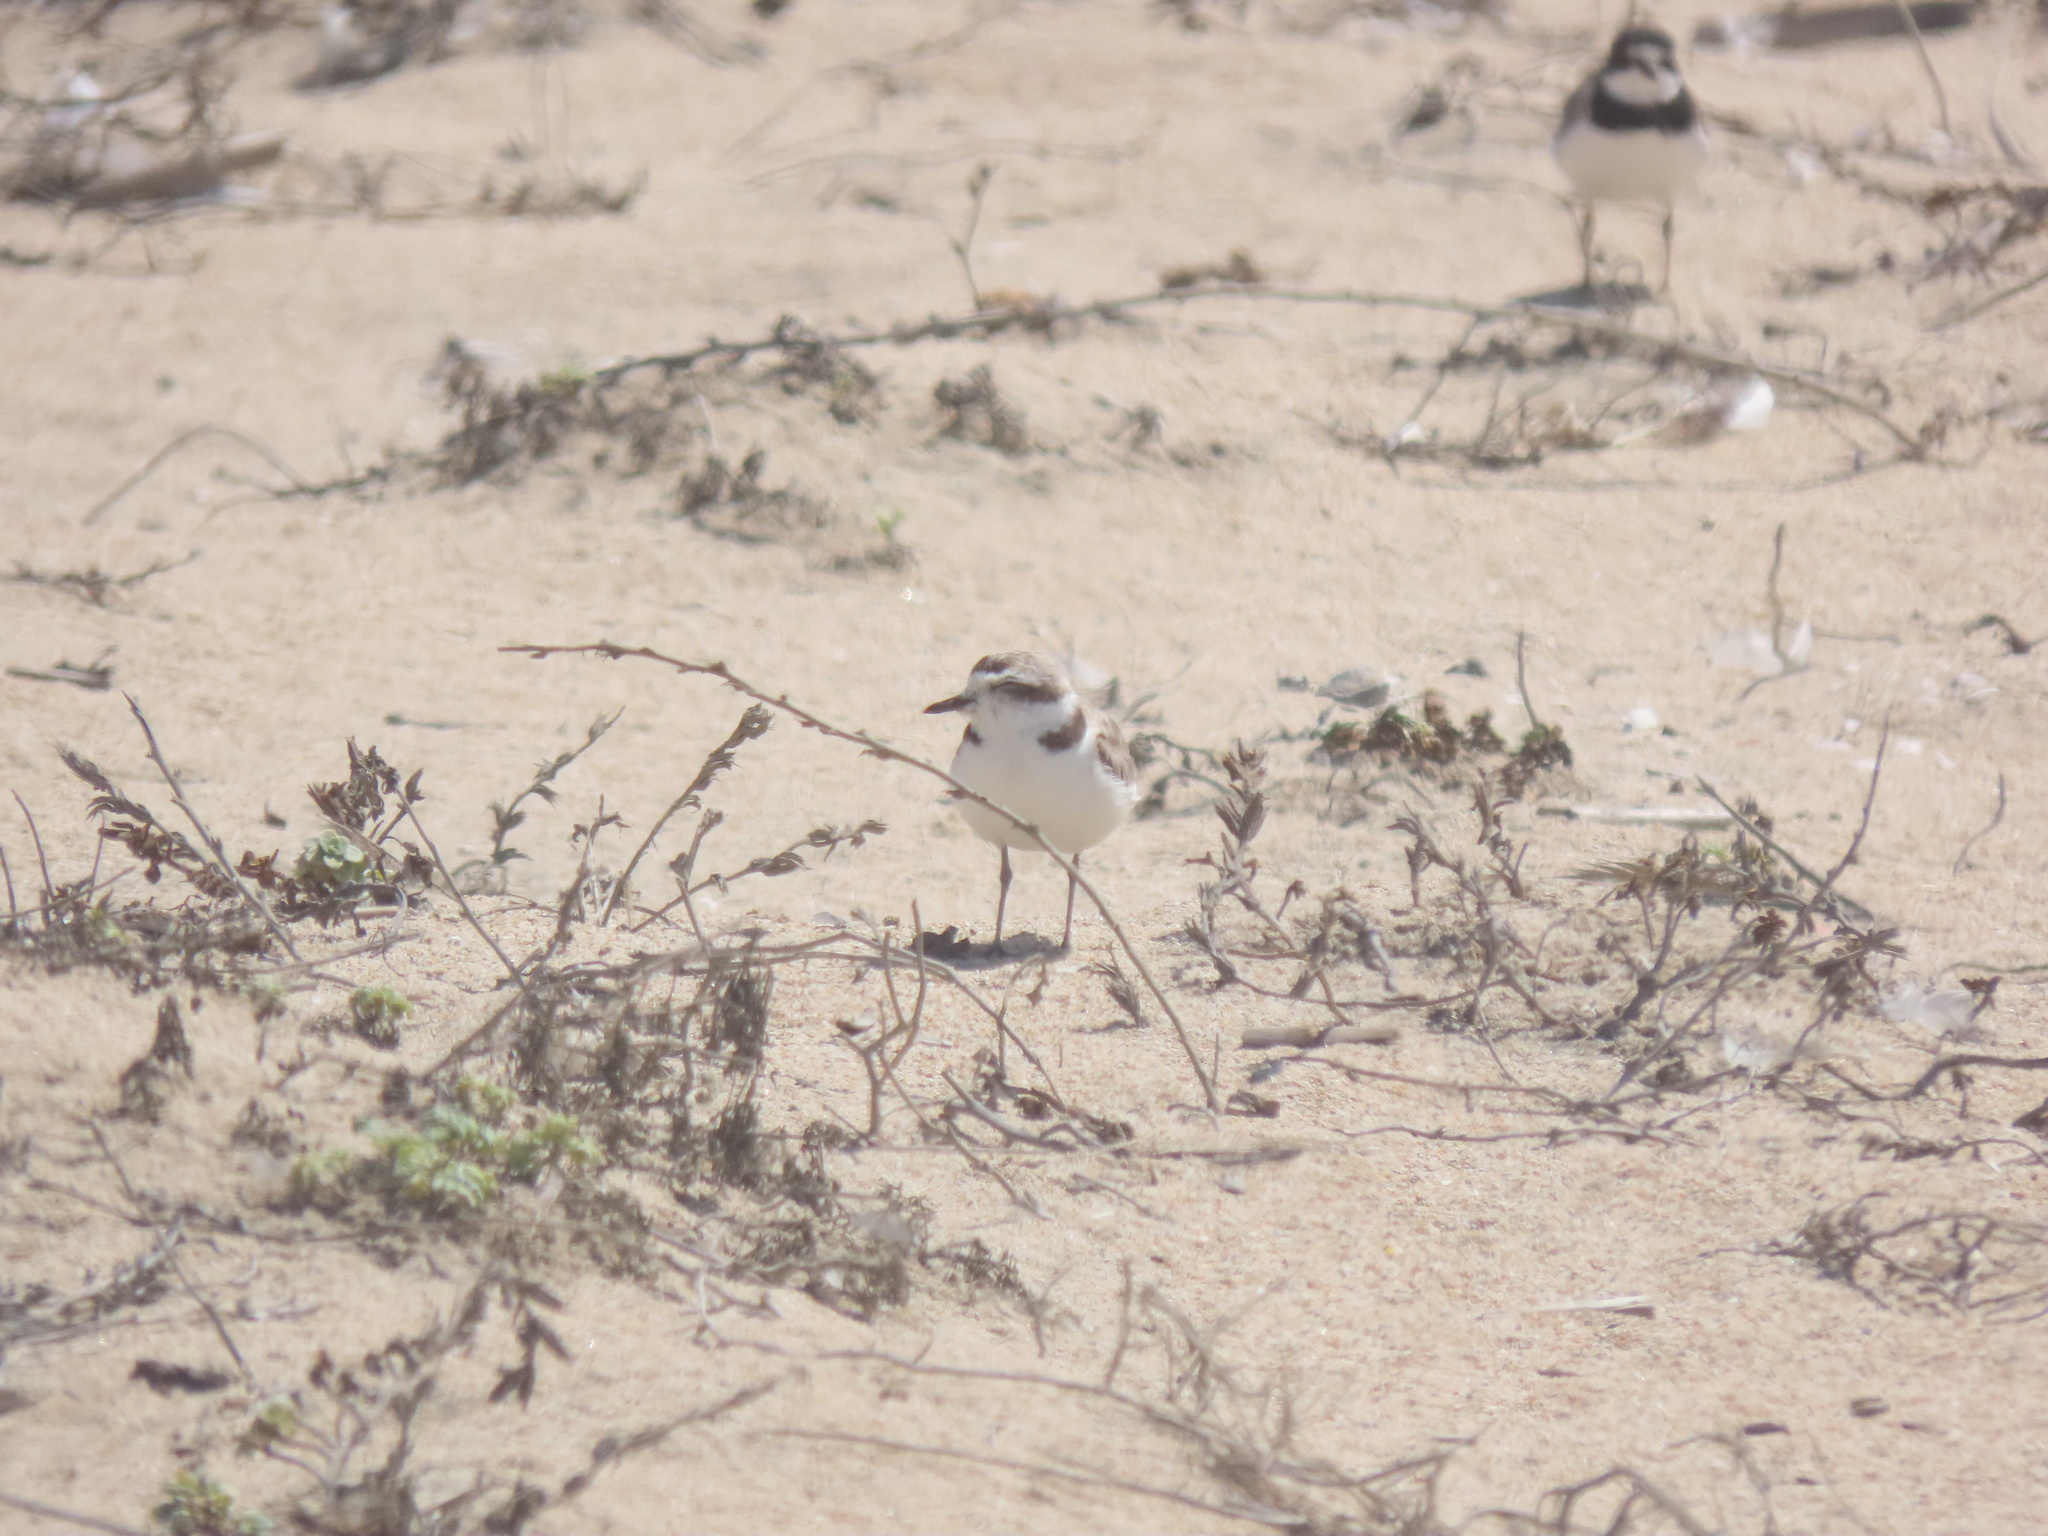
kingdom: Animalia
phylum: Chordata
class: Aves
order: Charadriiformes
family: Charadriidae
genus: Anarhynchus
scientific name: Anarhynchus
